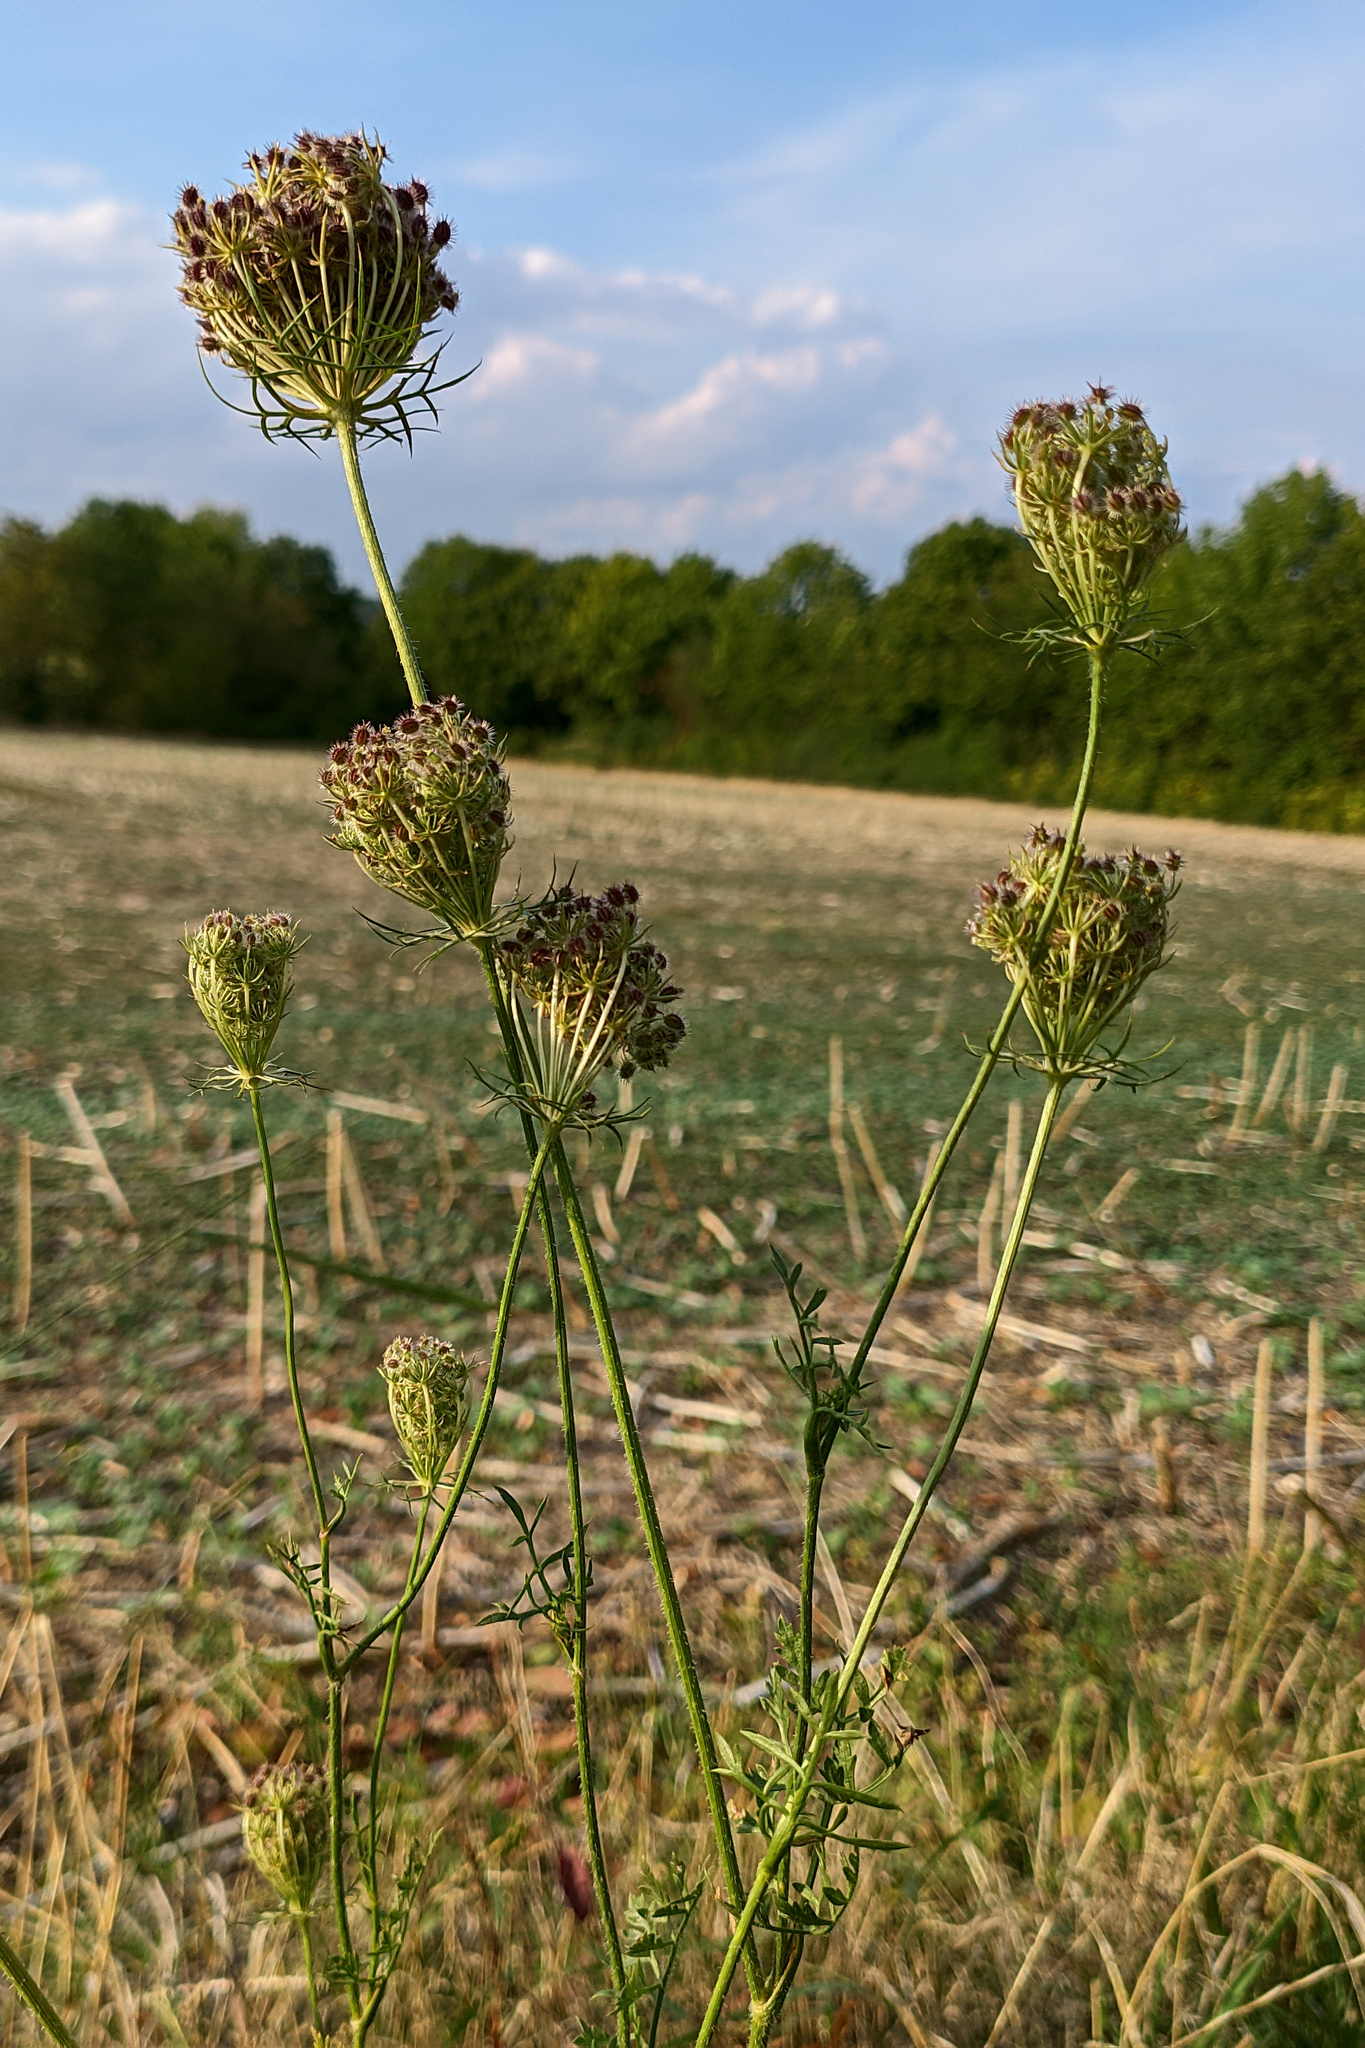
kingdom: Plantae
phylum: Tracheophyta
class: Magnoliopsida
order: Apiales
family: Apiaceae
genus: Daucus
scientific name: Daucus carota
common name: Wild carrot
